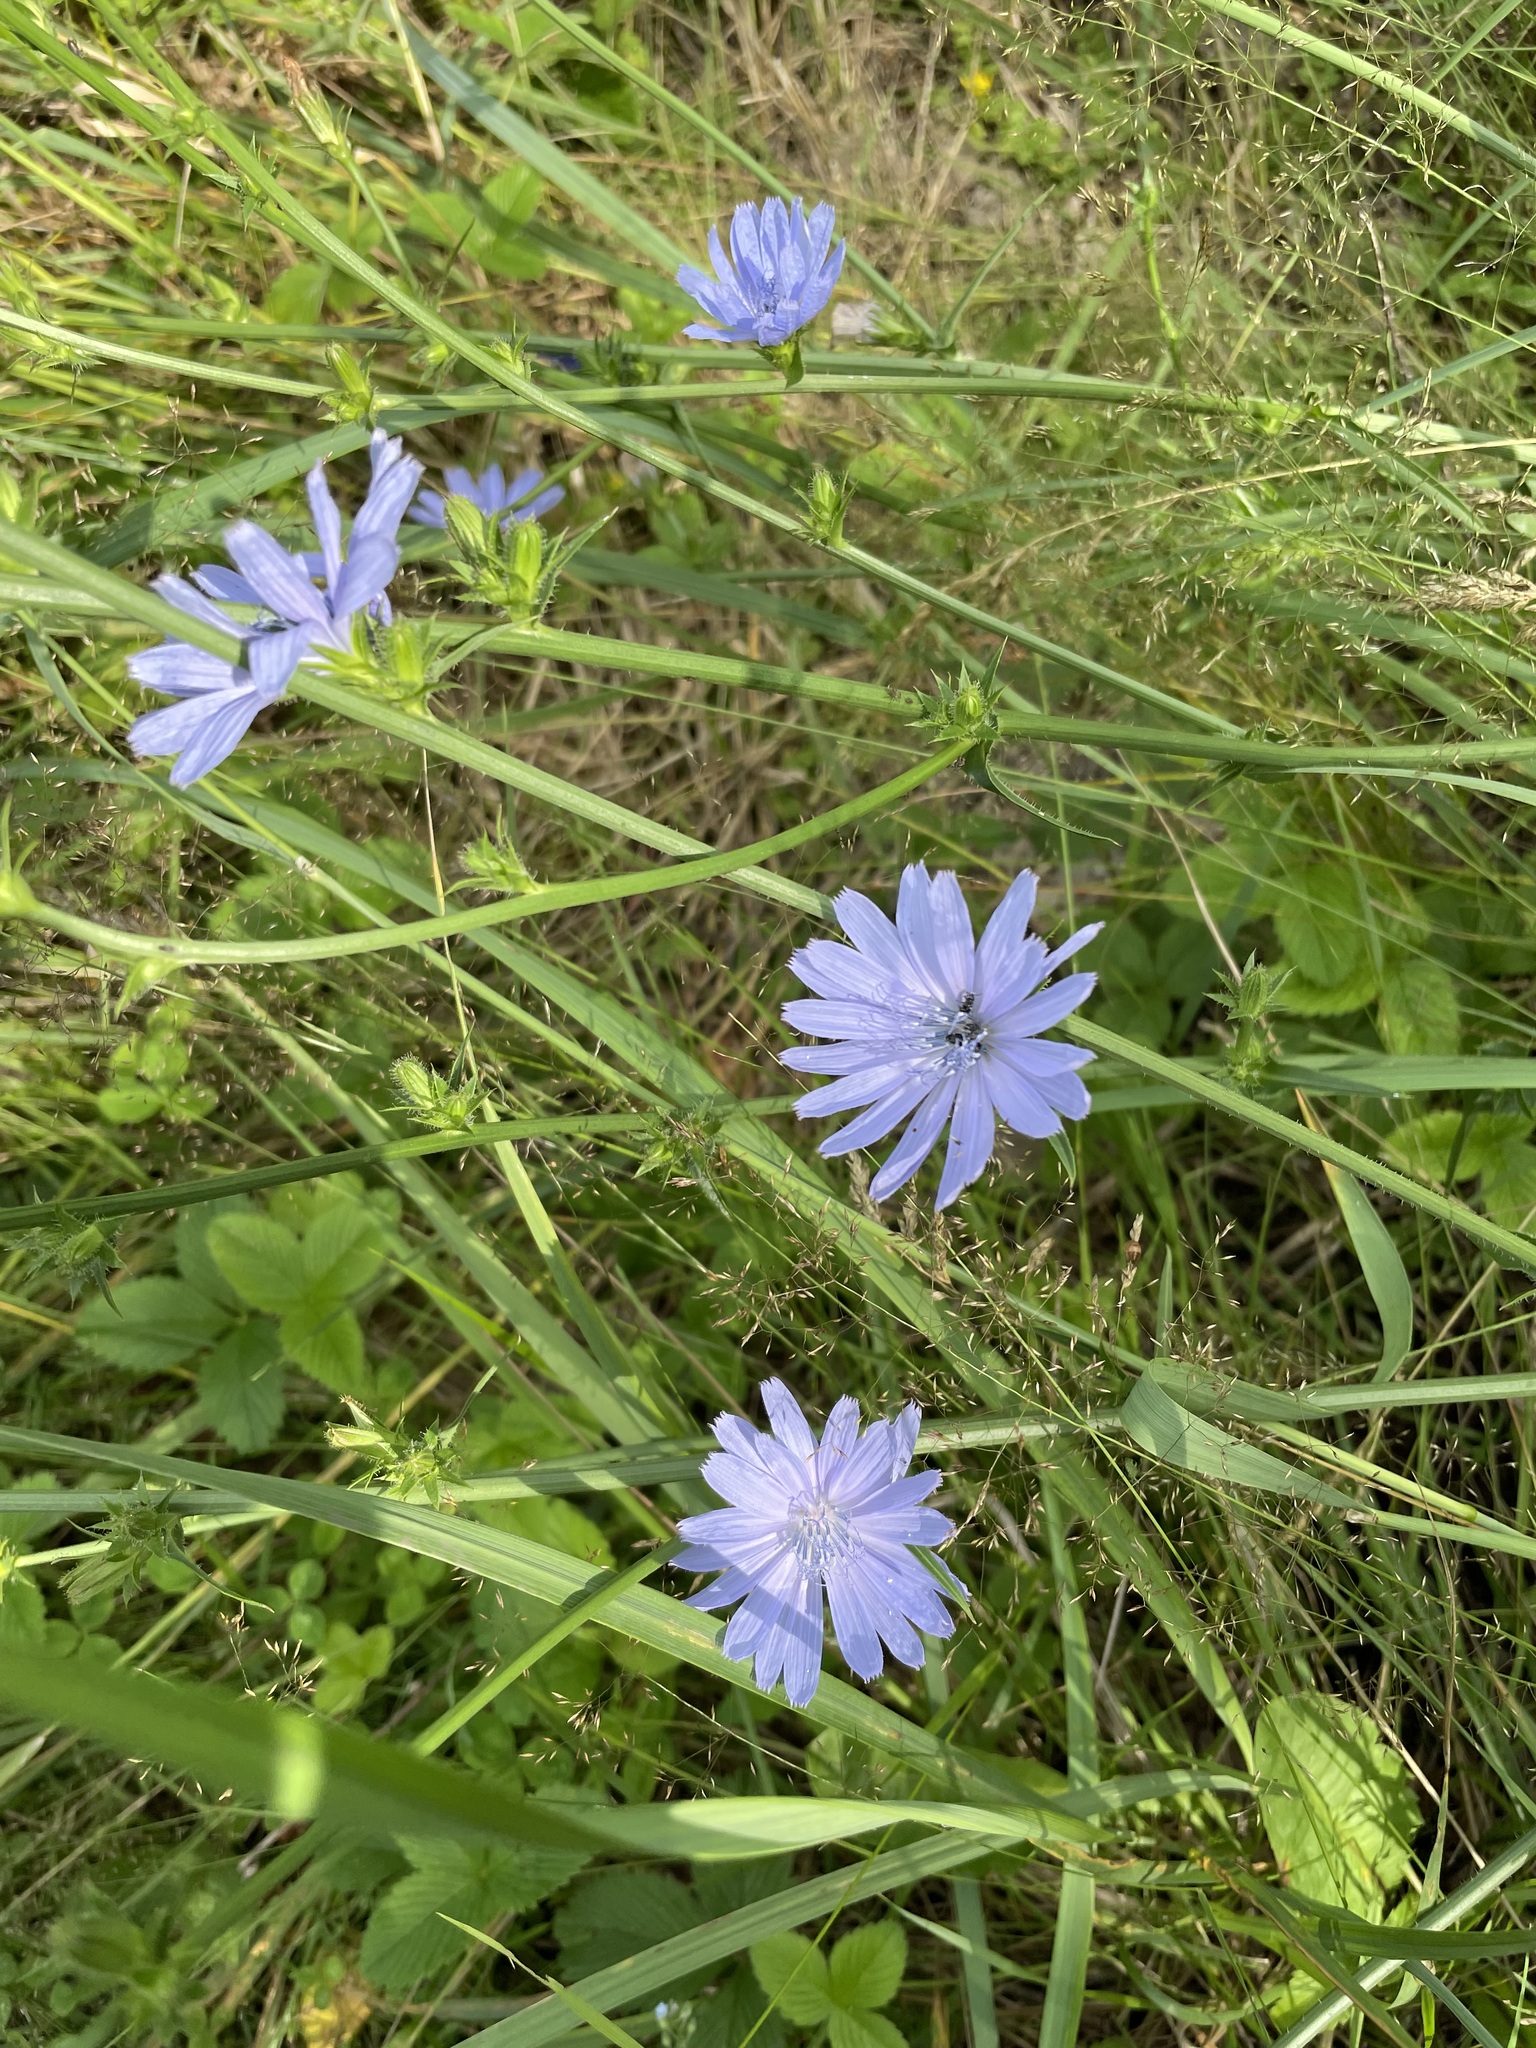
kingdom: Plantae
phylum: Tracheophyta
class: Magnoliopsida
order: Asterales
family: Asteraceae
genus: Cichorium
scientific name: Cichorium intybus
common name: Chicory
